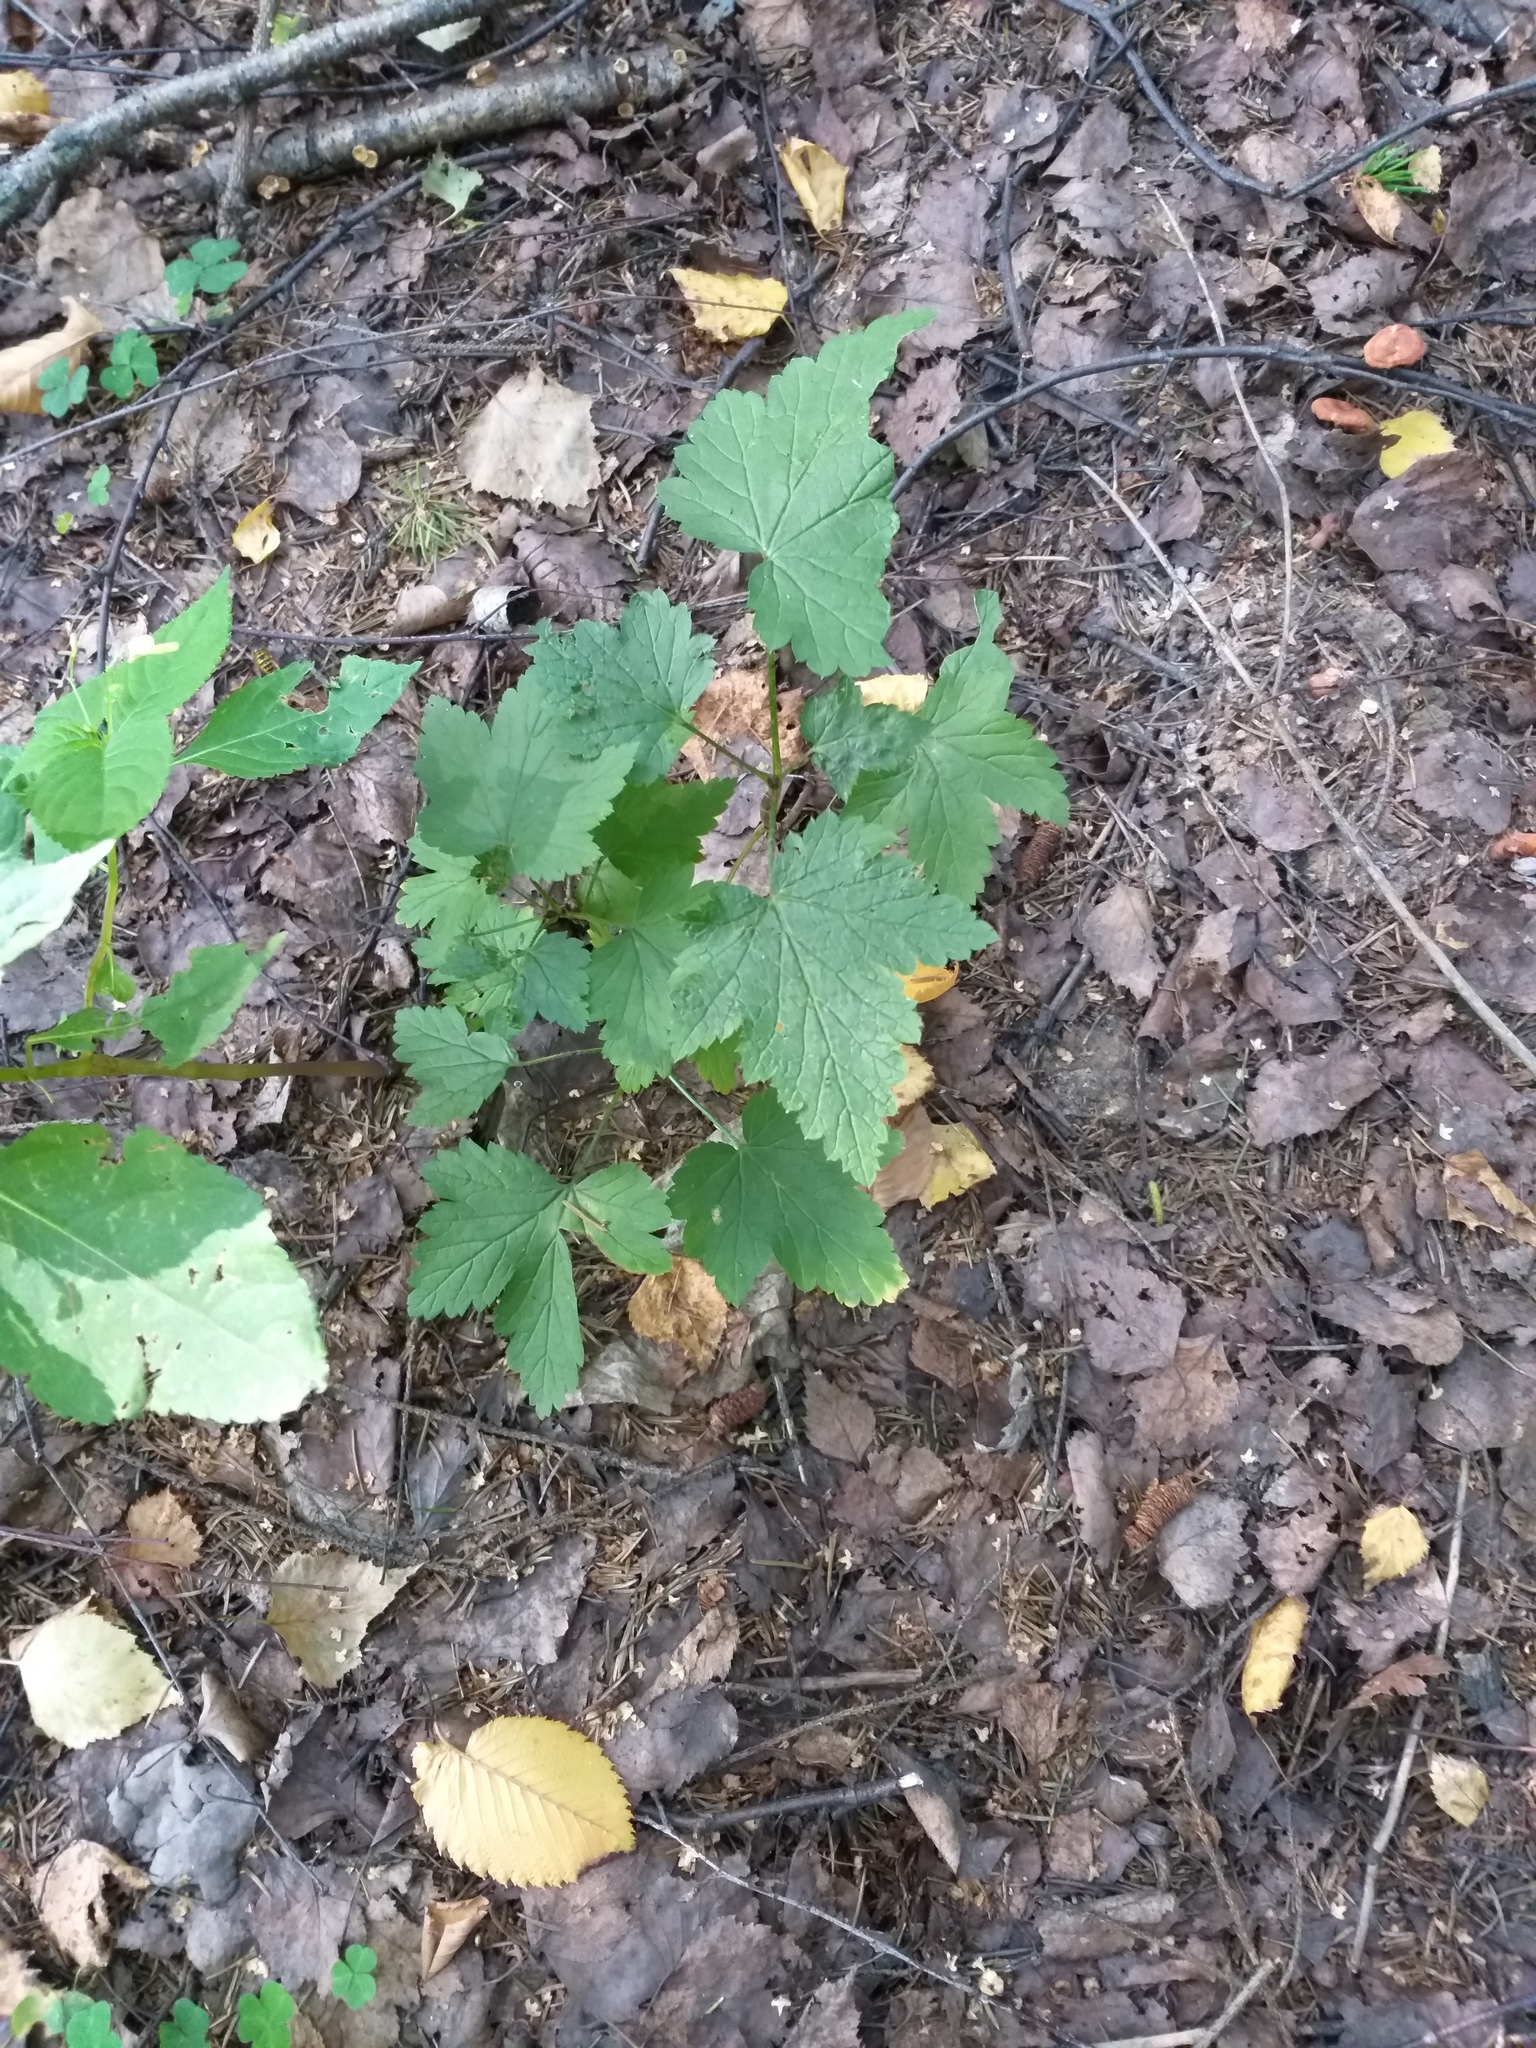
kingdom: Plantae
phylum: Tracheophyta
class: Magnoliopsida
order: Saxifragales
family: Grossulariaceae
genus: Ribes
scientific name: Ribes rubrum
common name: Red currant
